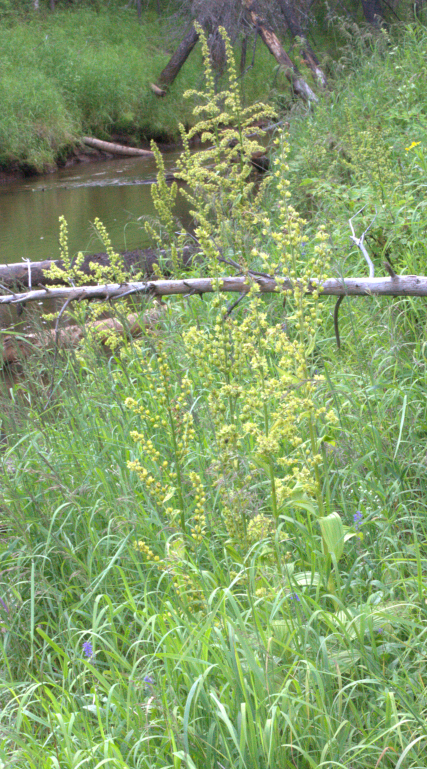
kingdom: Plantae
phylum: Tracheophyta
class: Liliopsida
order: Liliales
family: Melanthiaceae
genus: Veratrum
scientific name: Veratrum lobelianum
